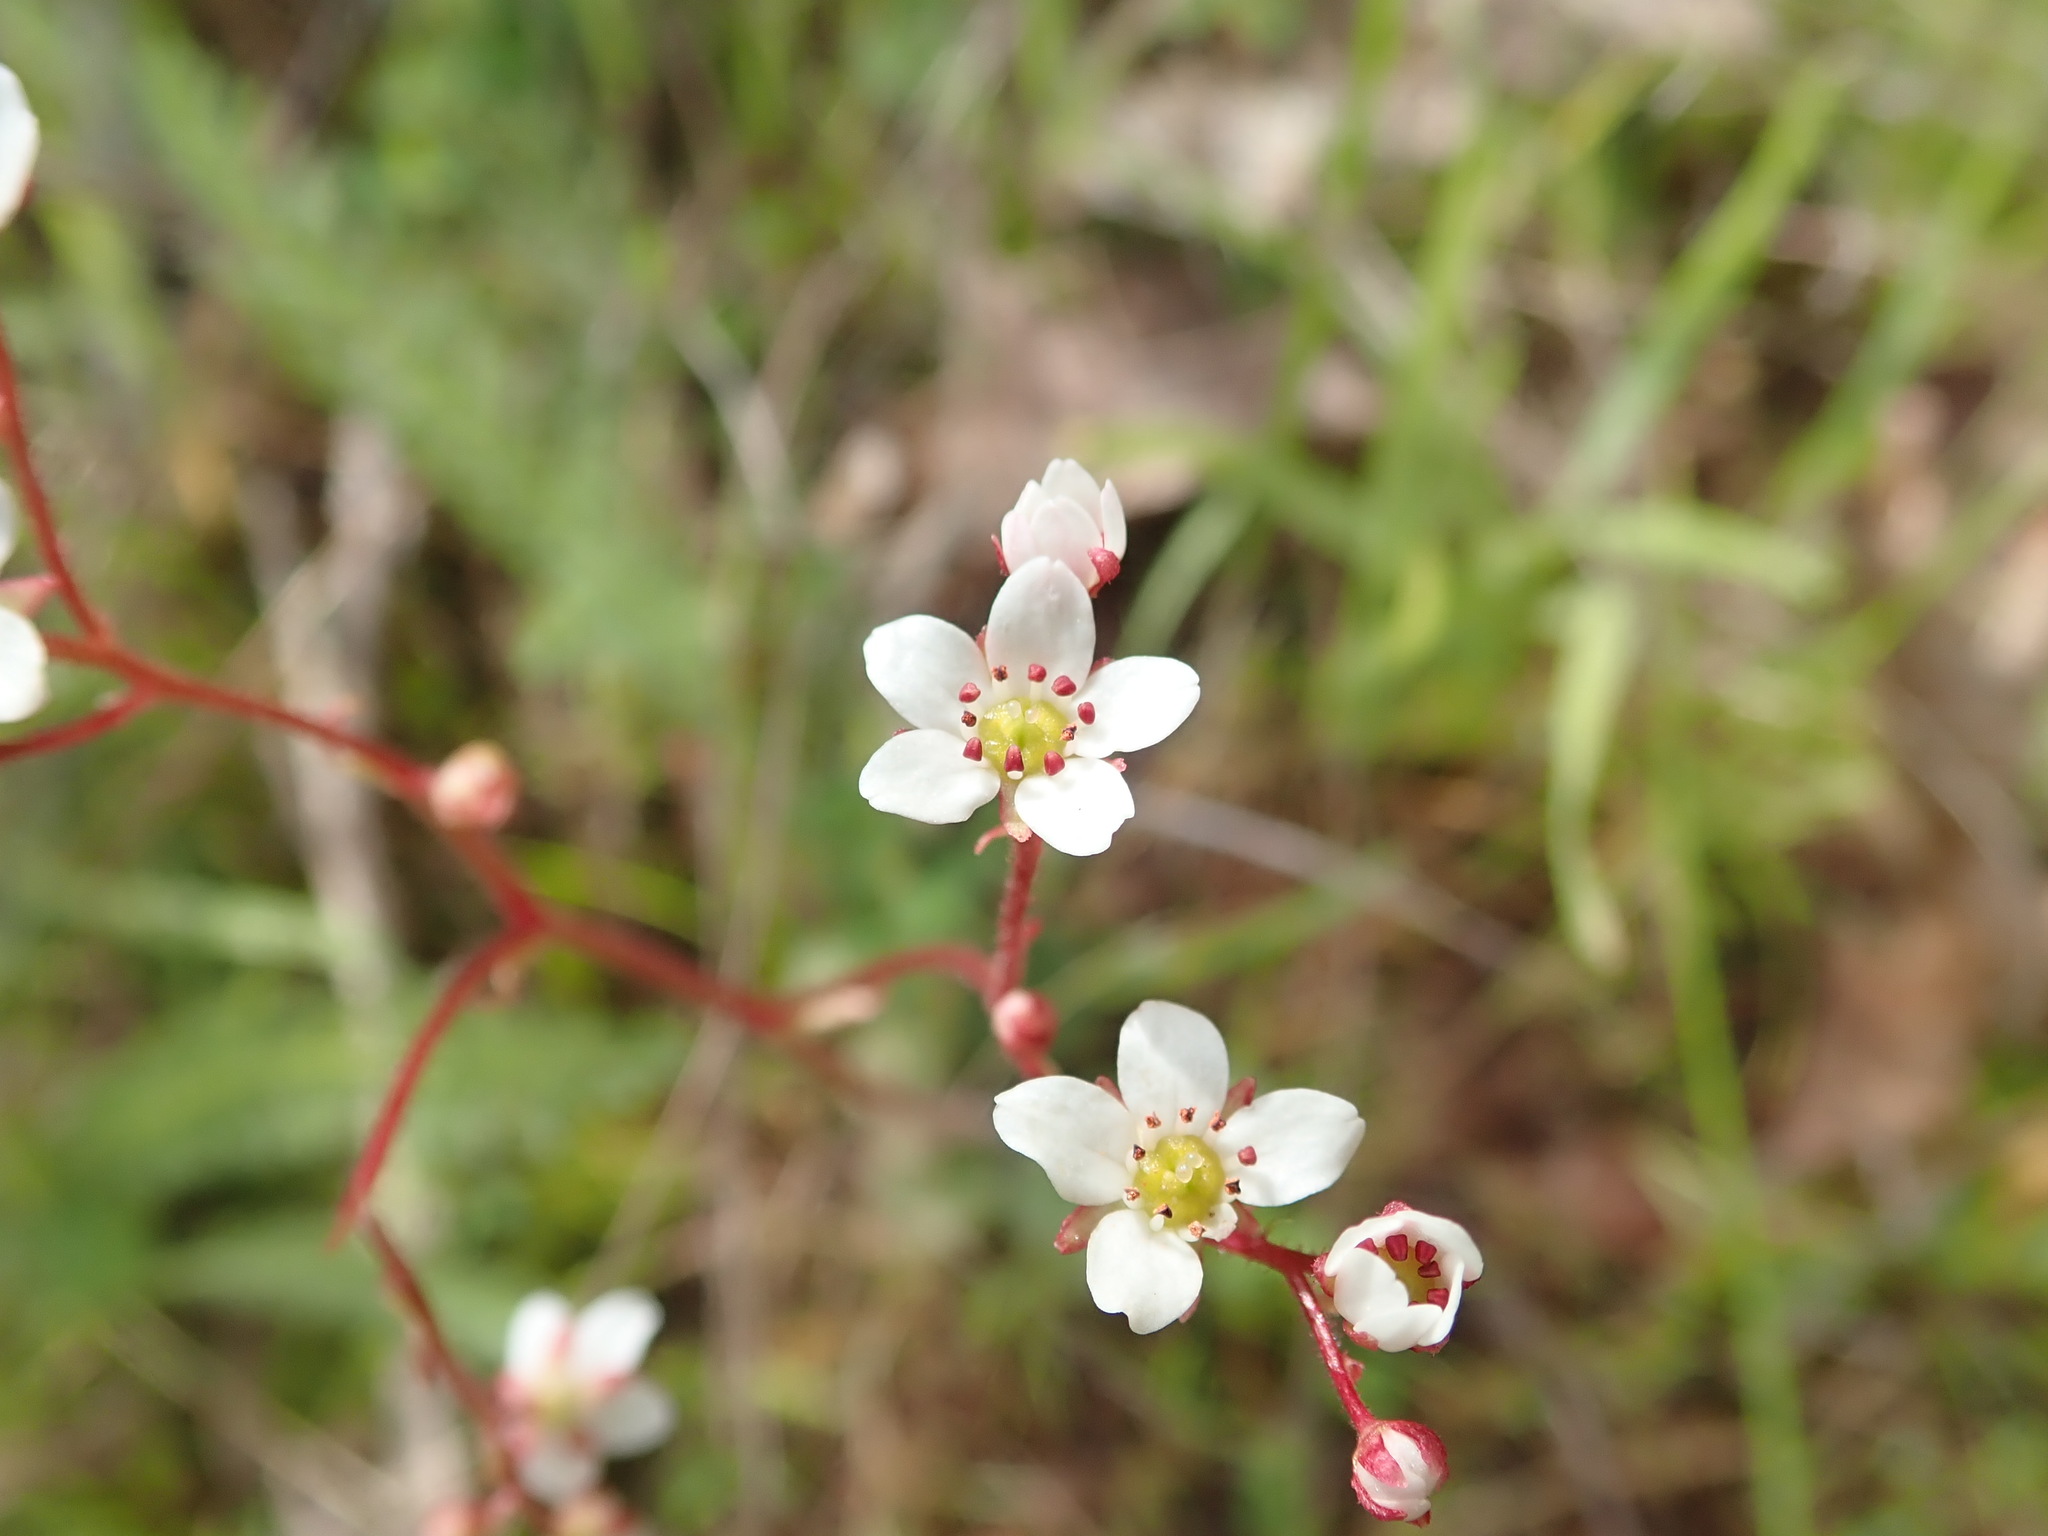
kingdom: Plantae
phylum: Tracheophyta
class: Magnoliopsida
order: Saxifragales
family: Saxifragaceae
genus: Micranthes
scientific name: Micranthes californica
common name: California saxifrage
